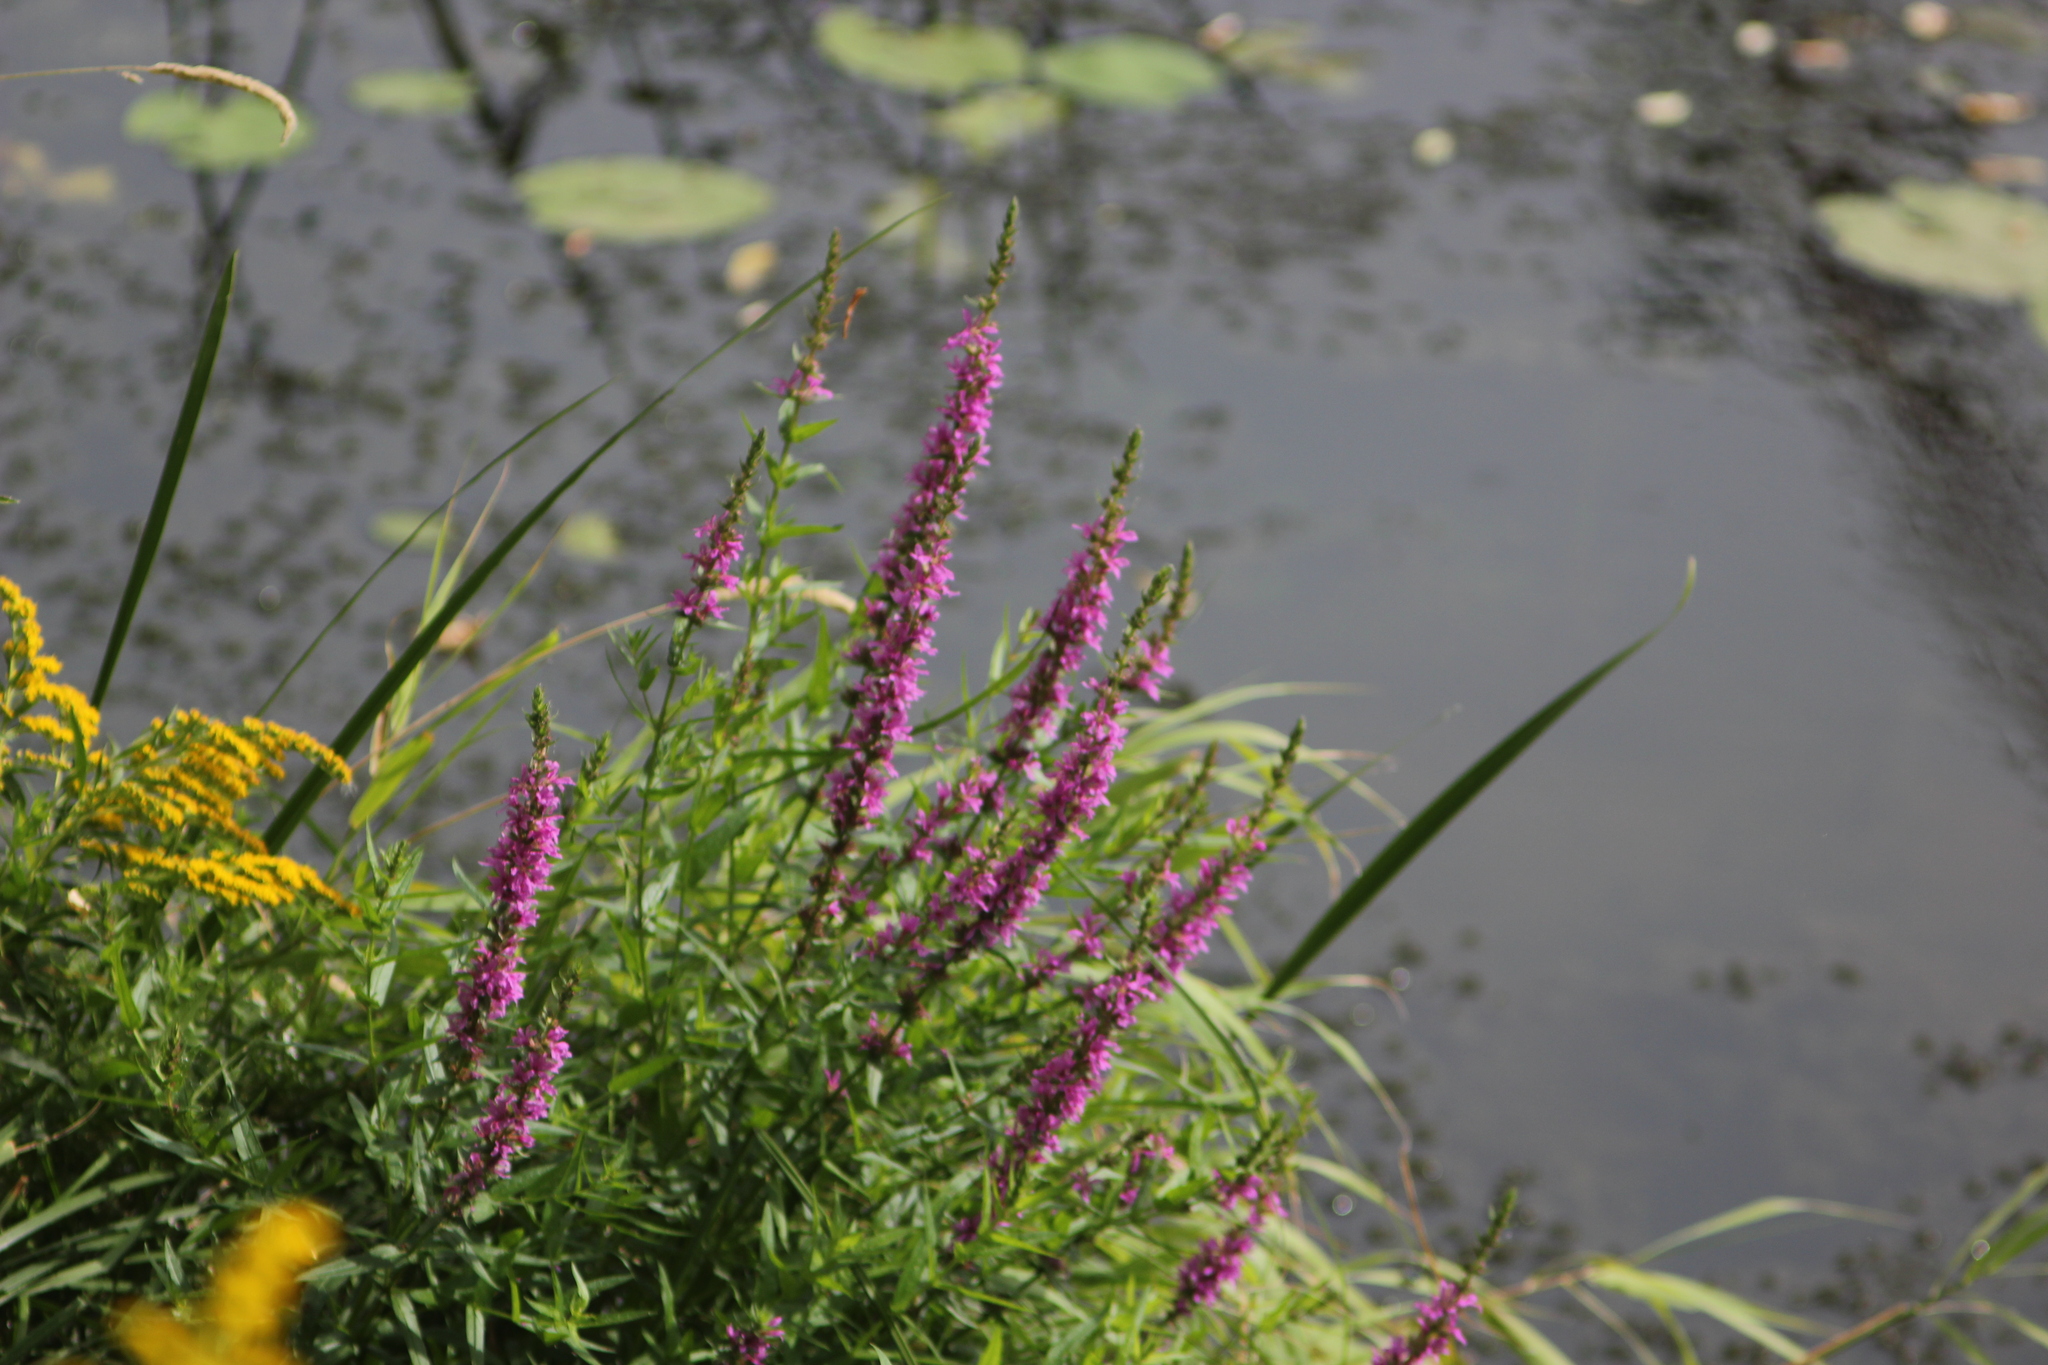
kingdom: Plantae
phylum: Tracheophyta
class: Magnoliopsida
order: Myrtales
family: Lythraceae
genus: Lythrum
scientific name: Lythrum salicaria
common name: Purple loosestrife
